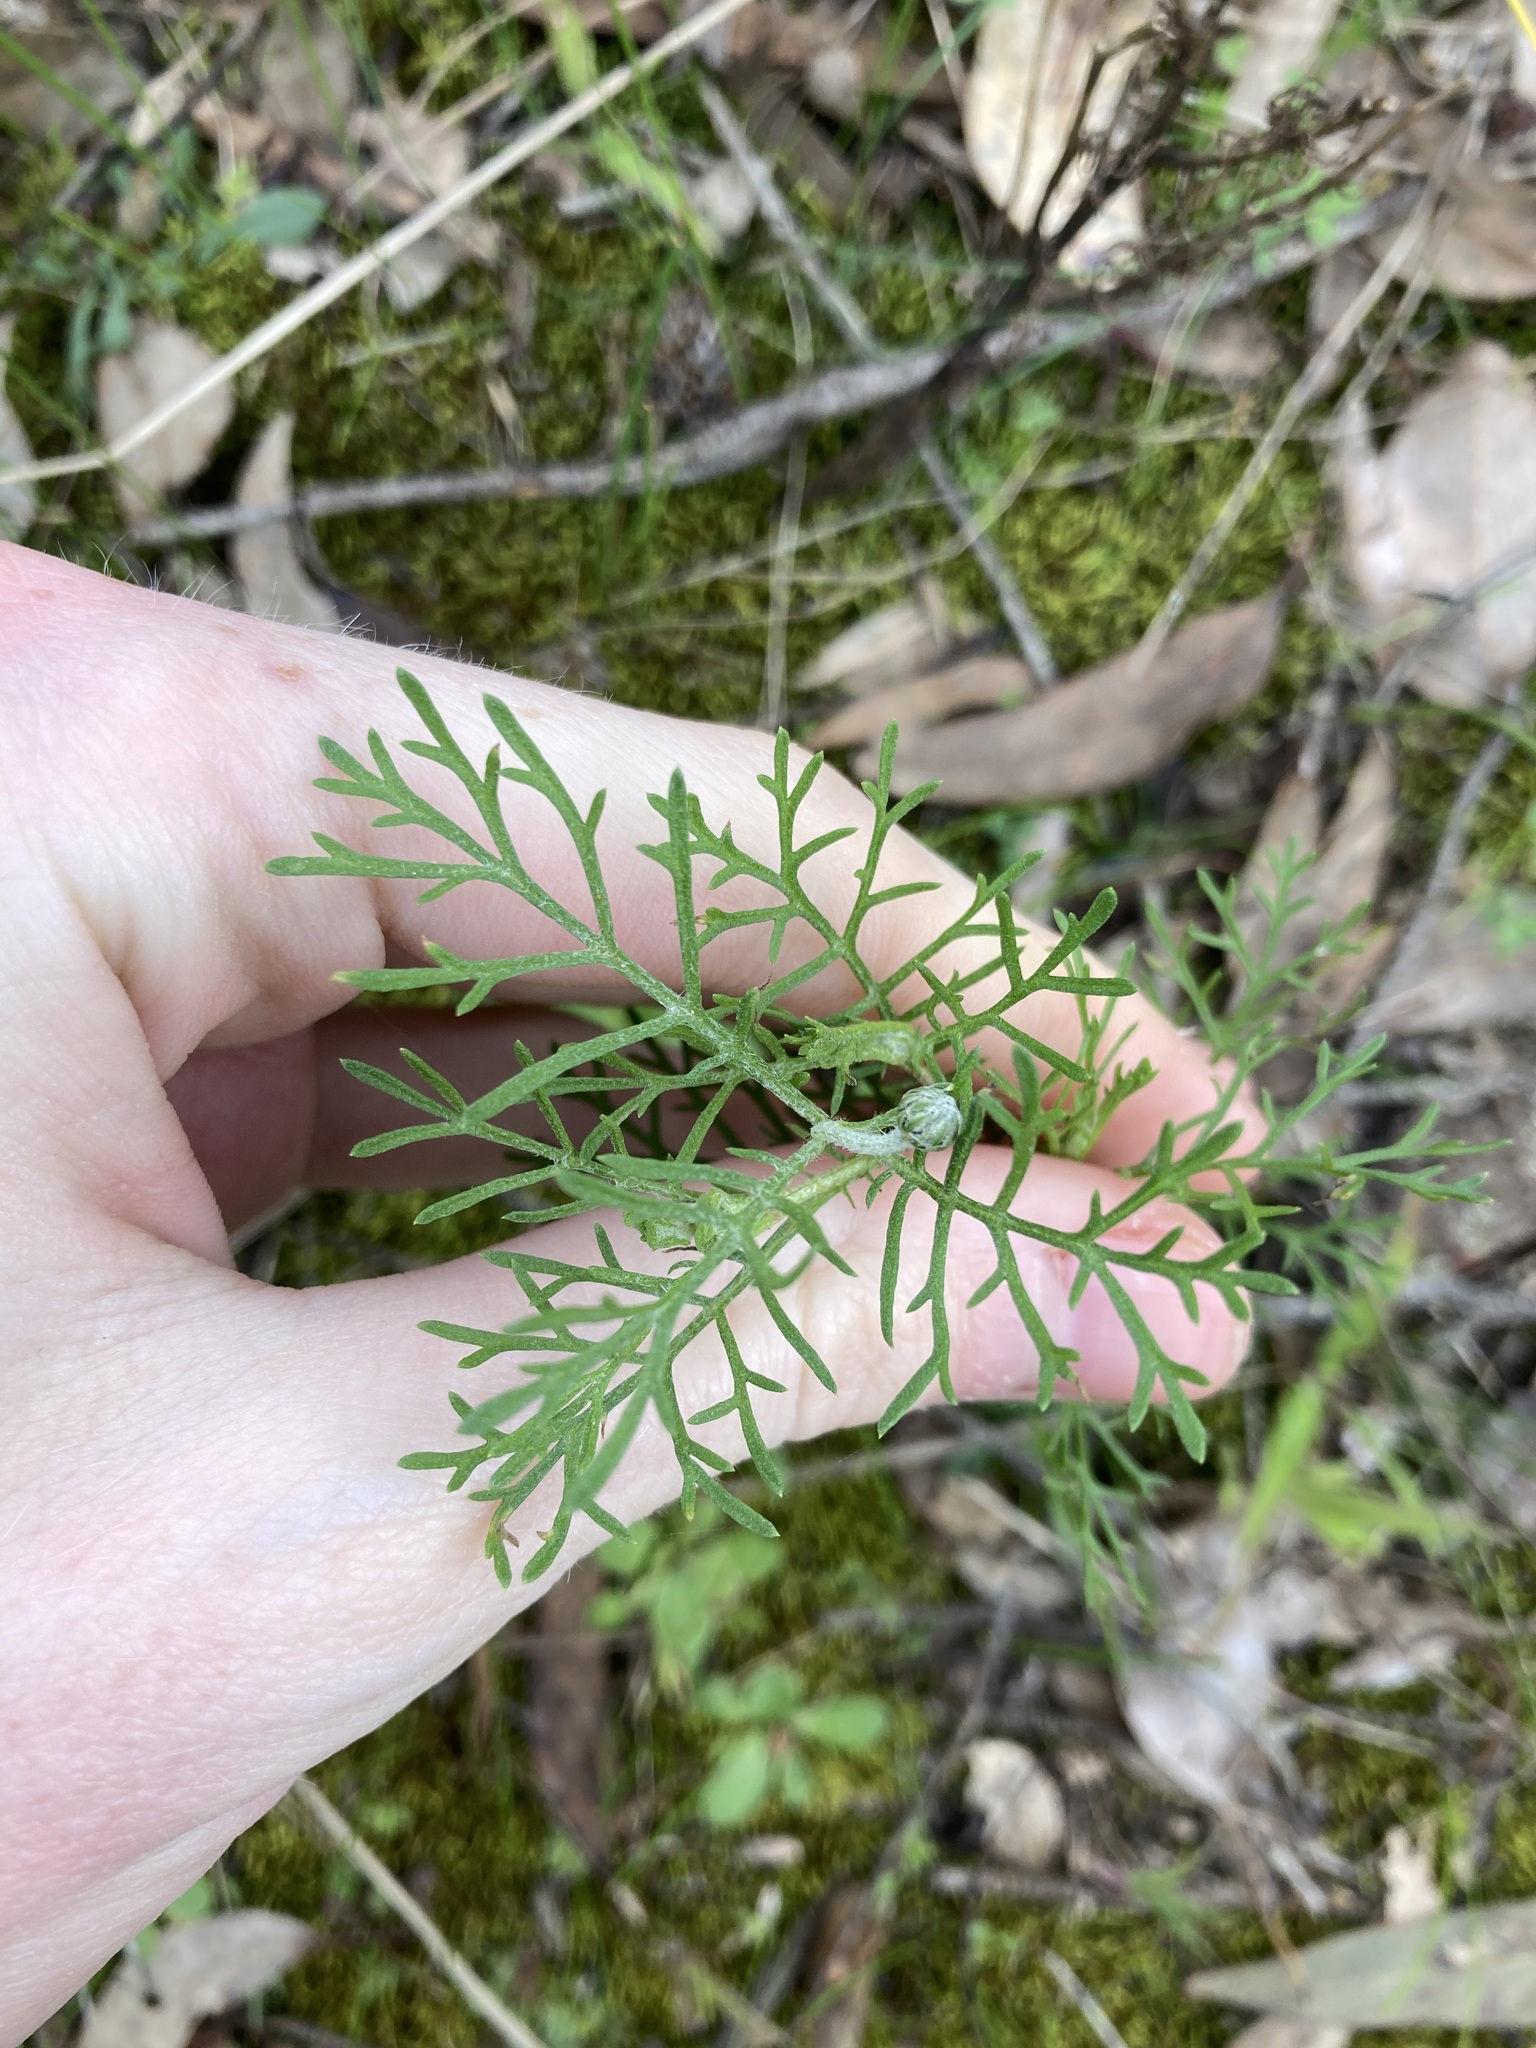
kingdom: Plantae
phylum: Tracheophyta
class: Magnoliopsida
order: Asterales
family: Asteraceae
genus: Ursinia
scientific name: Ursinia anthemoides
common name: Ursinia
